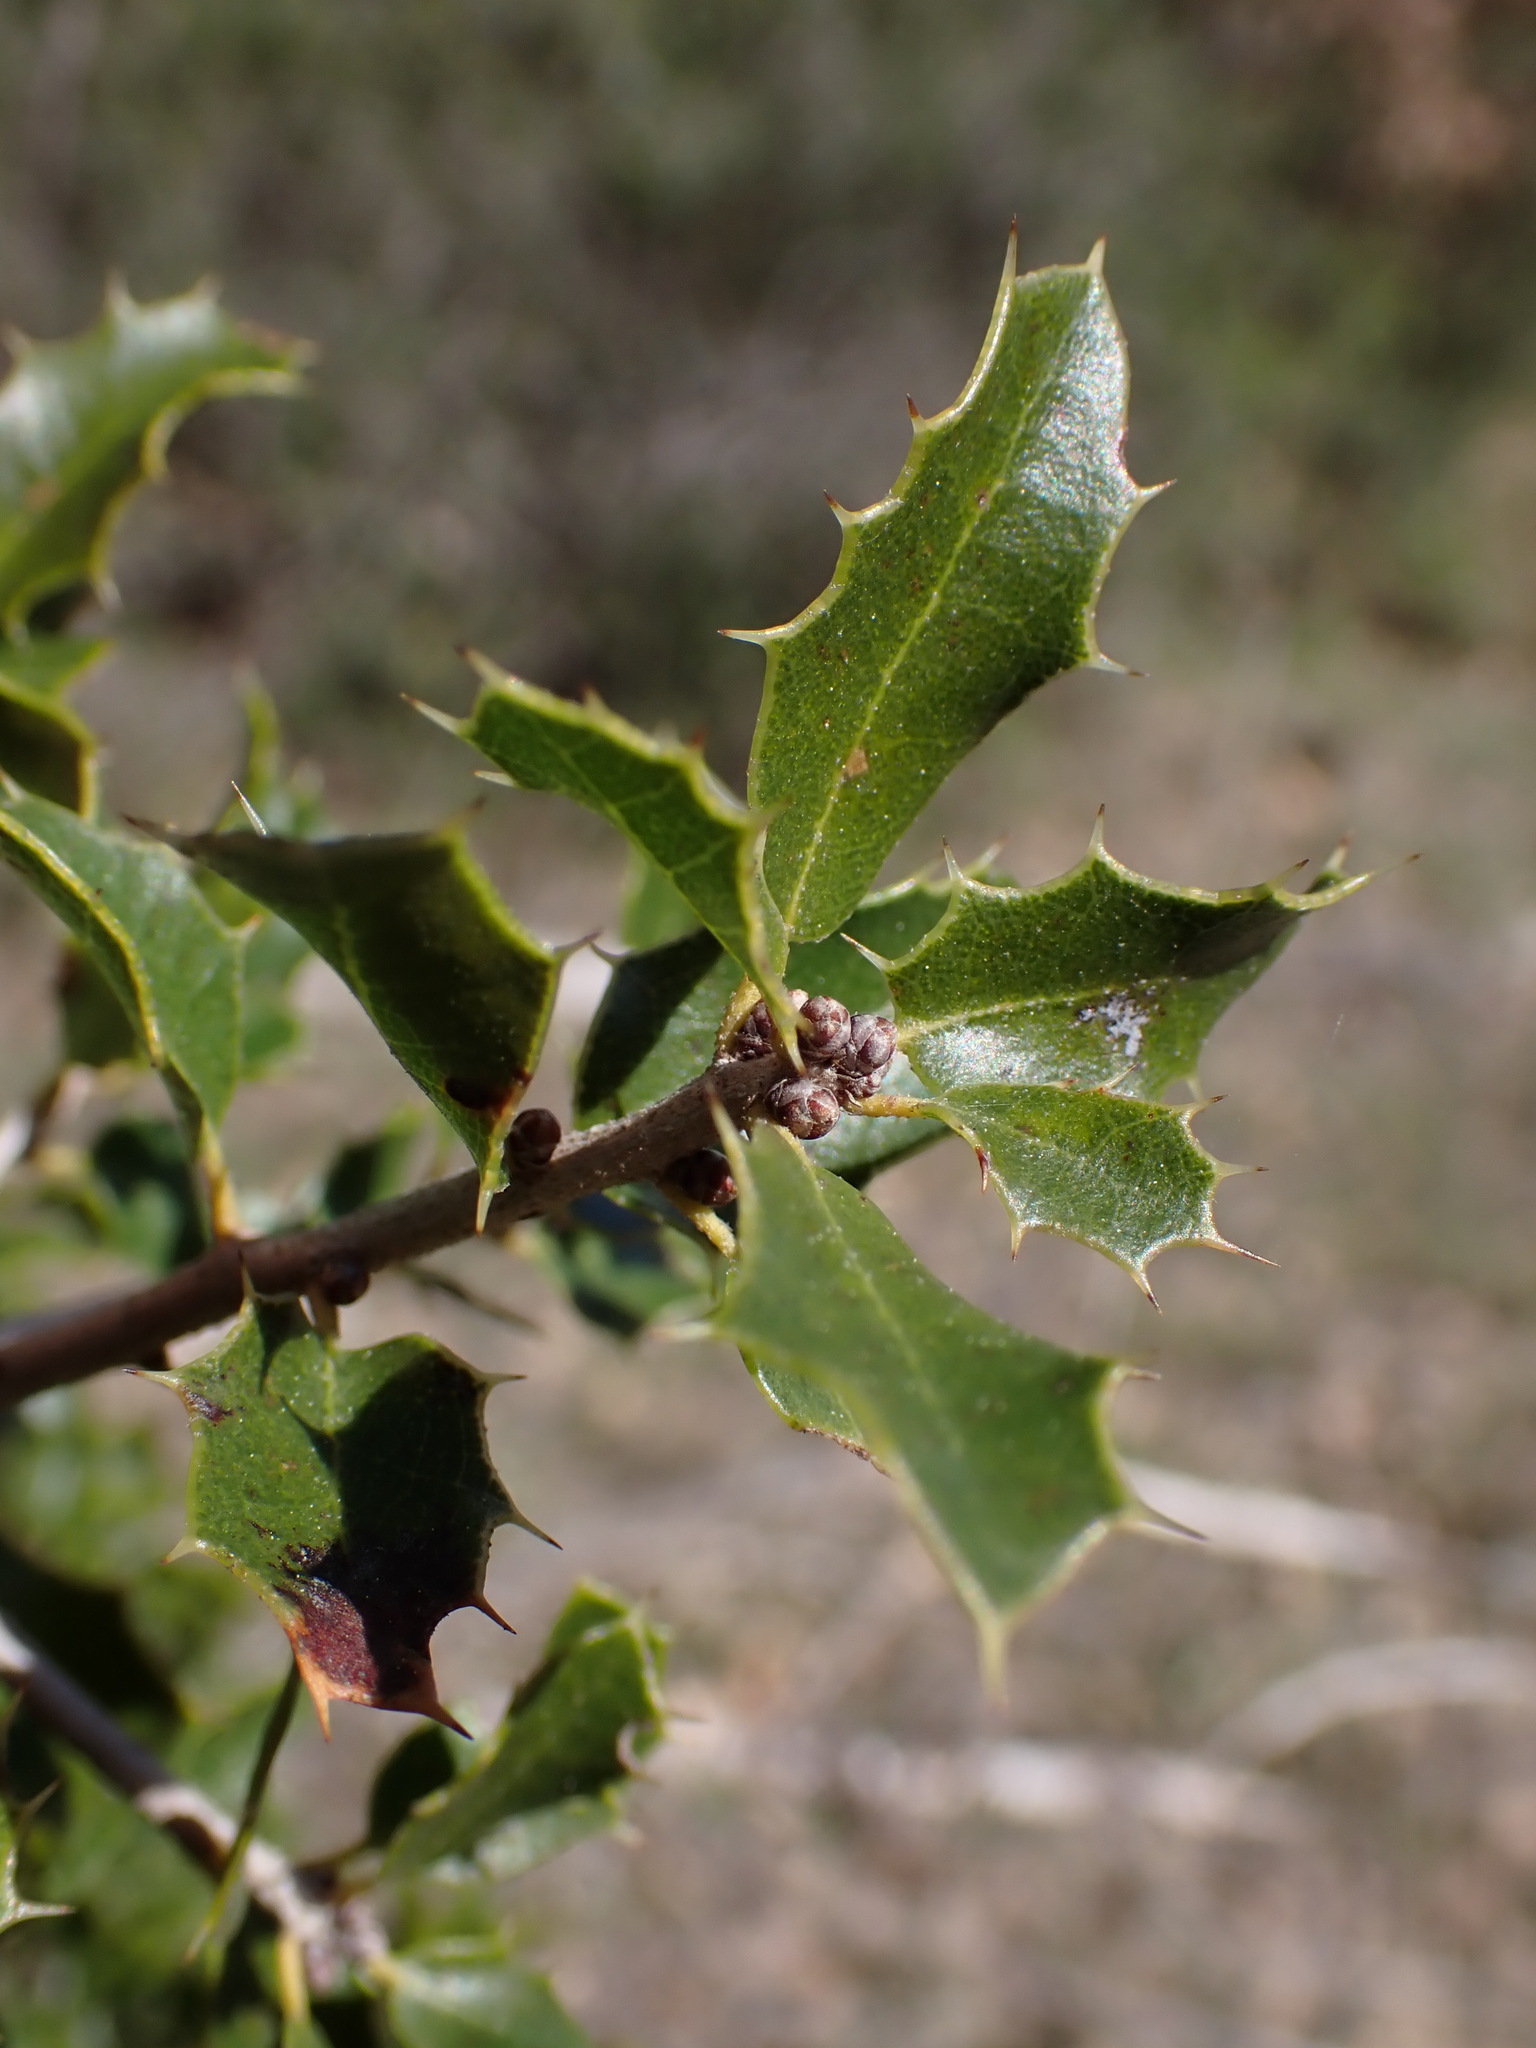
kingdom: Plantae
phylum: Tracheophyta
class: Magnoliopsida
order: Fagales
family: Fagaceae
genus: Quercus
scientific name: Quercus coccifera
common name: Kermes oak
